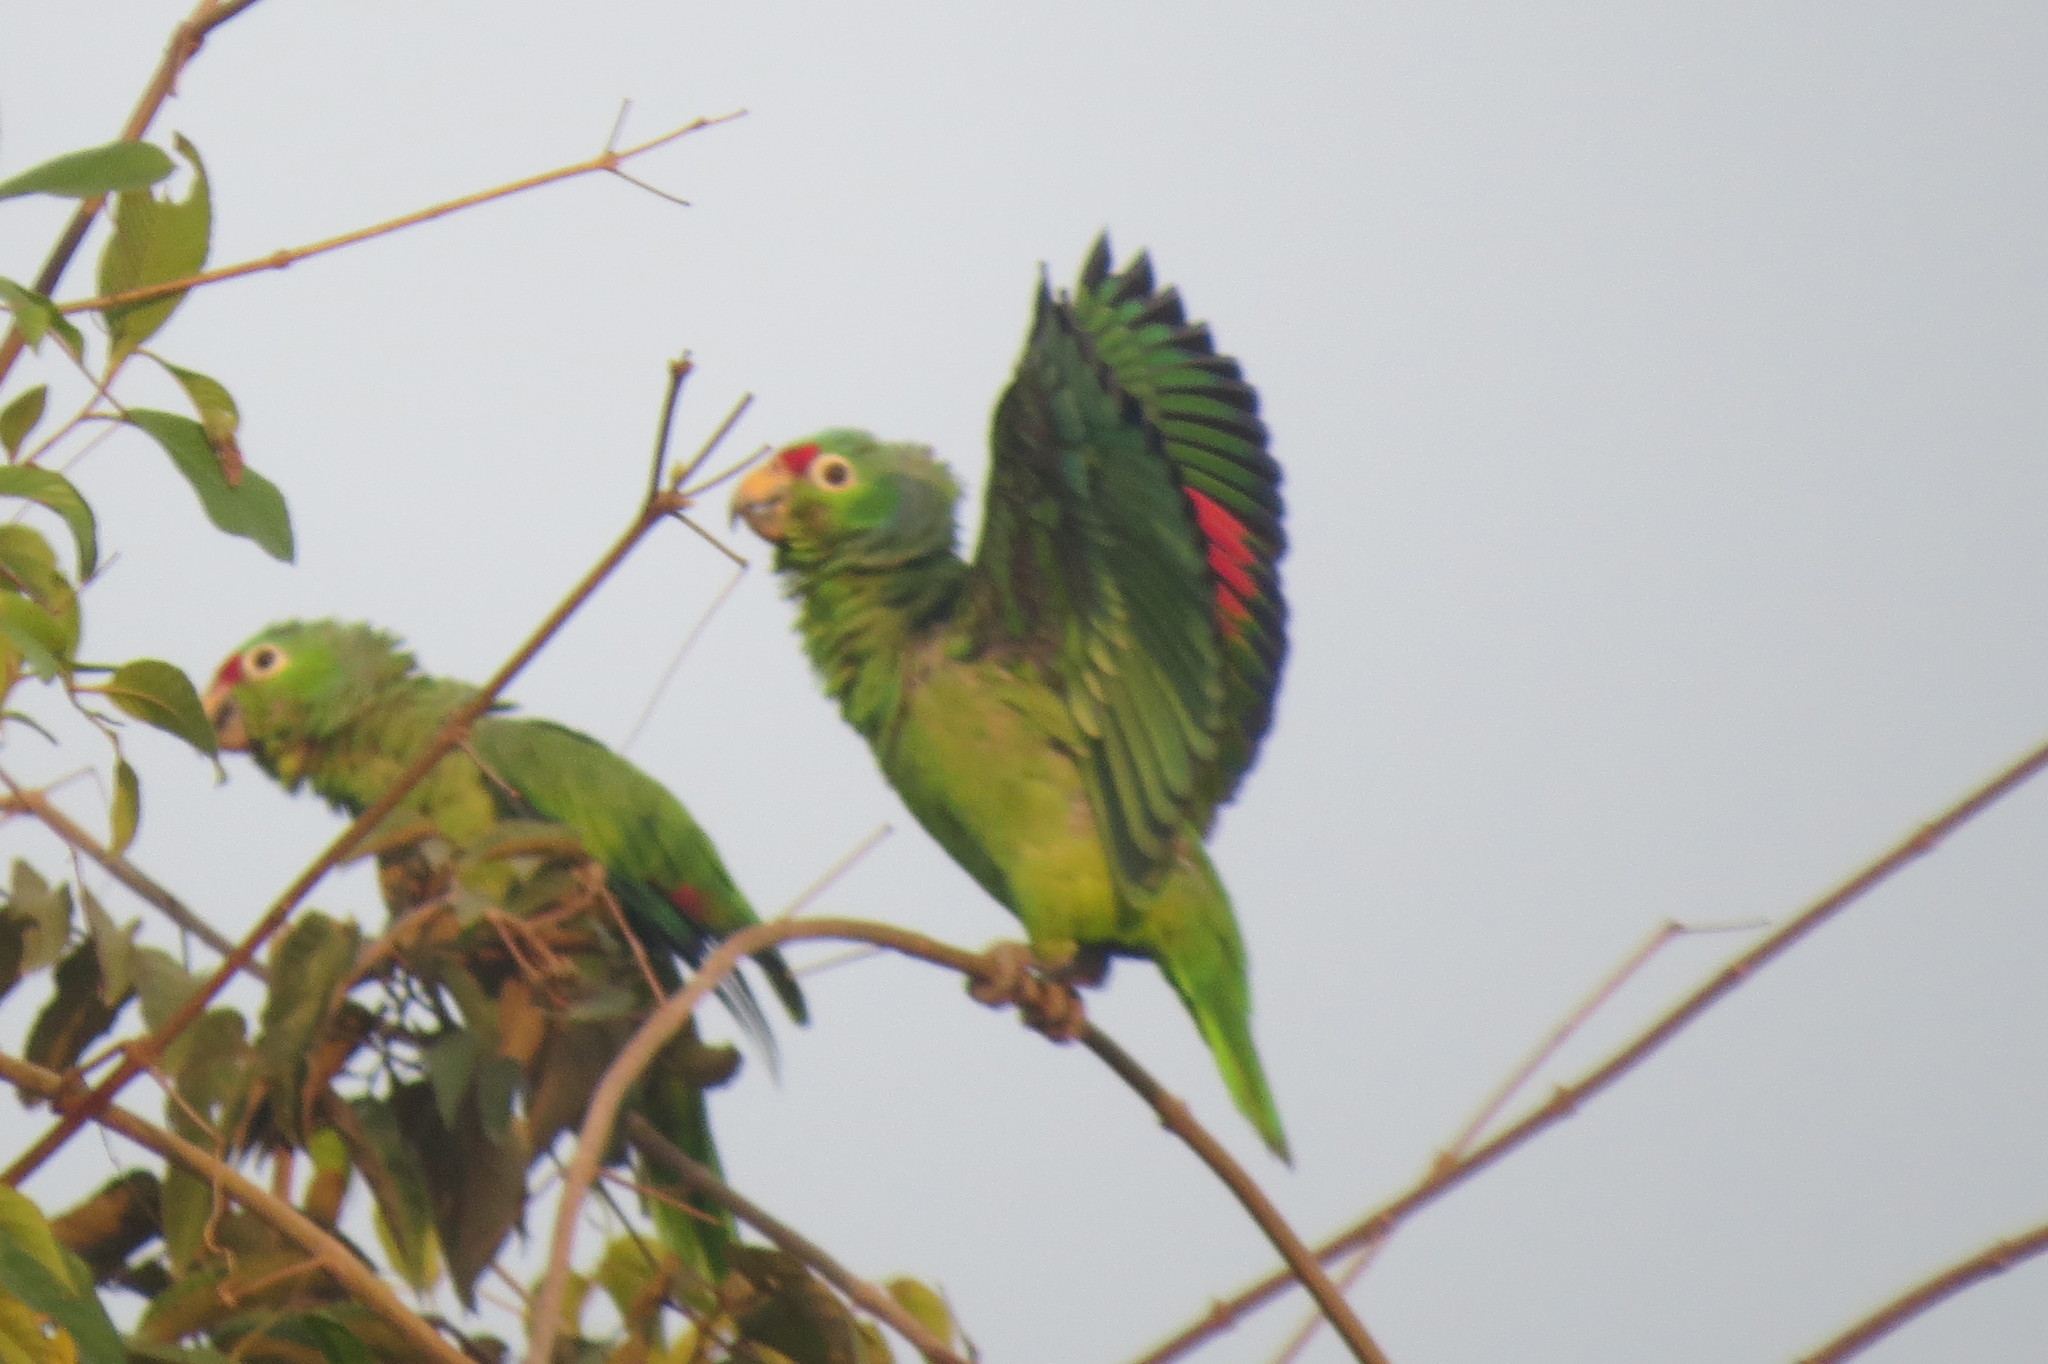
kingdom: Animalia
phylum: Chordata
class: Aves
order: Psittaciformes
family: Psittacidae
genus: Amazona
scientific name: Amazona autumnalis
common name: Red-lored amazon
